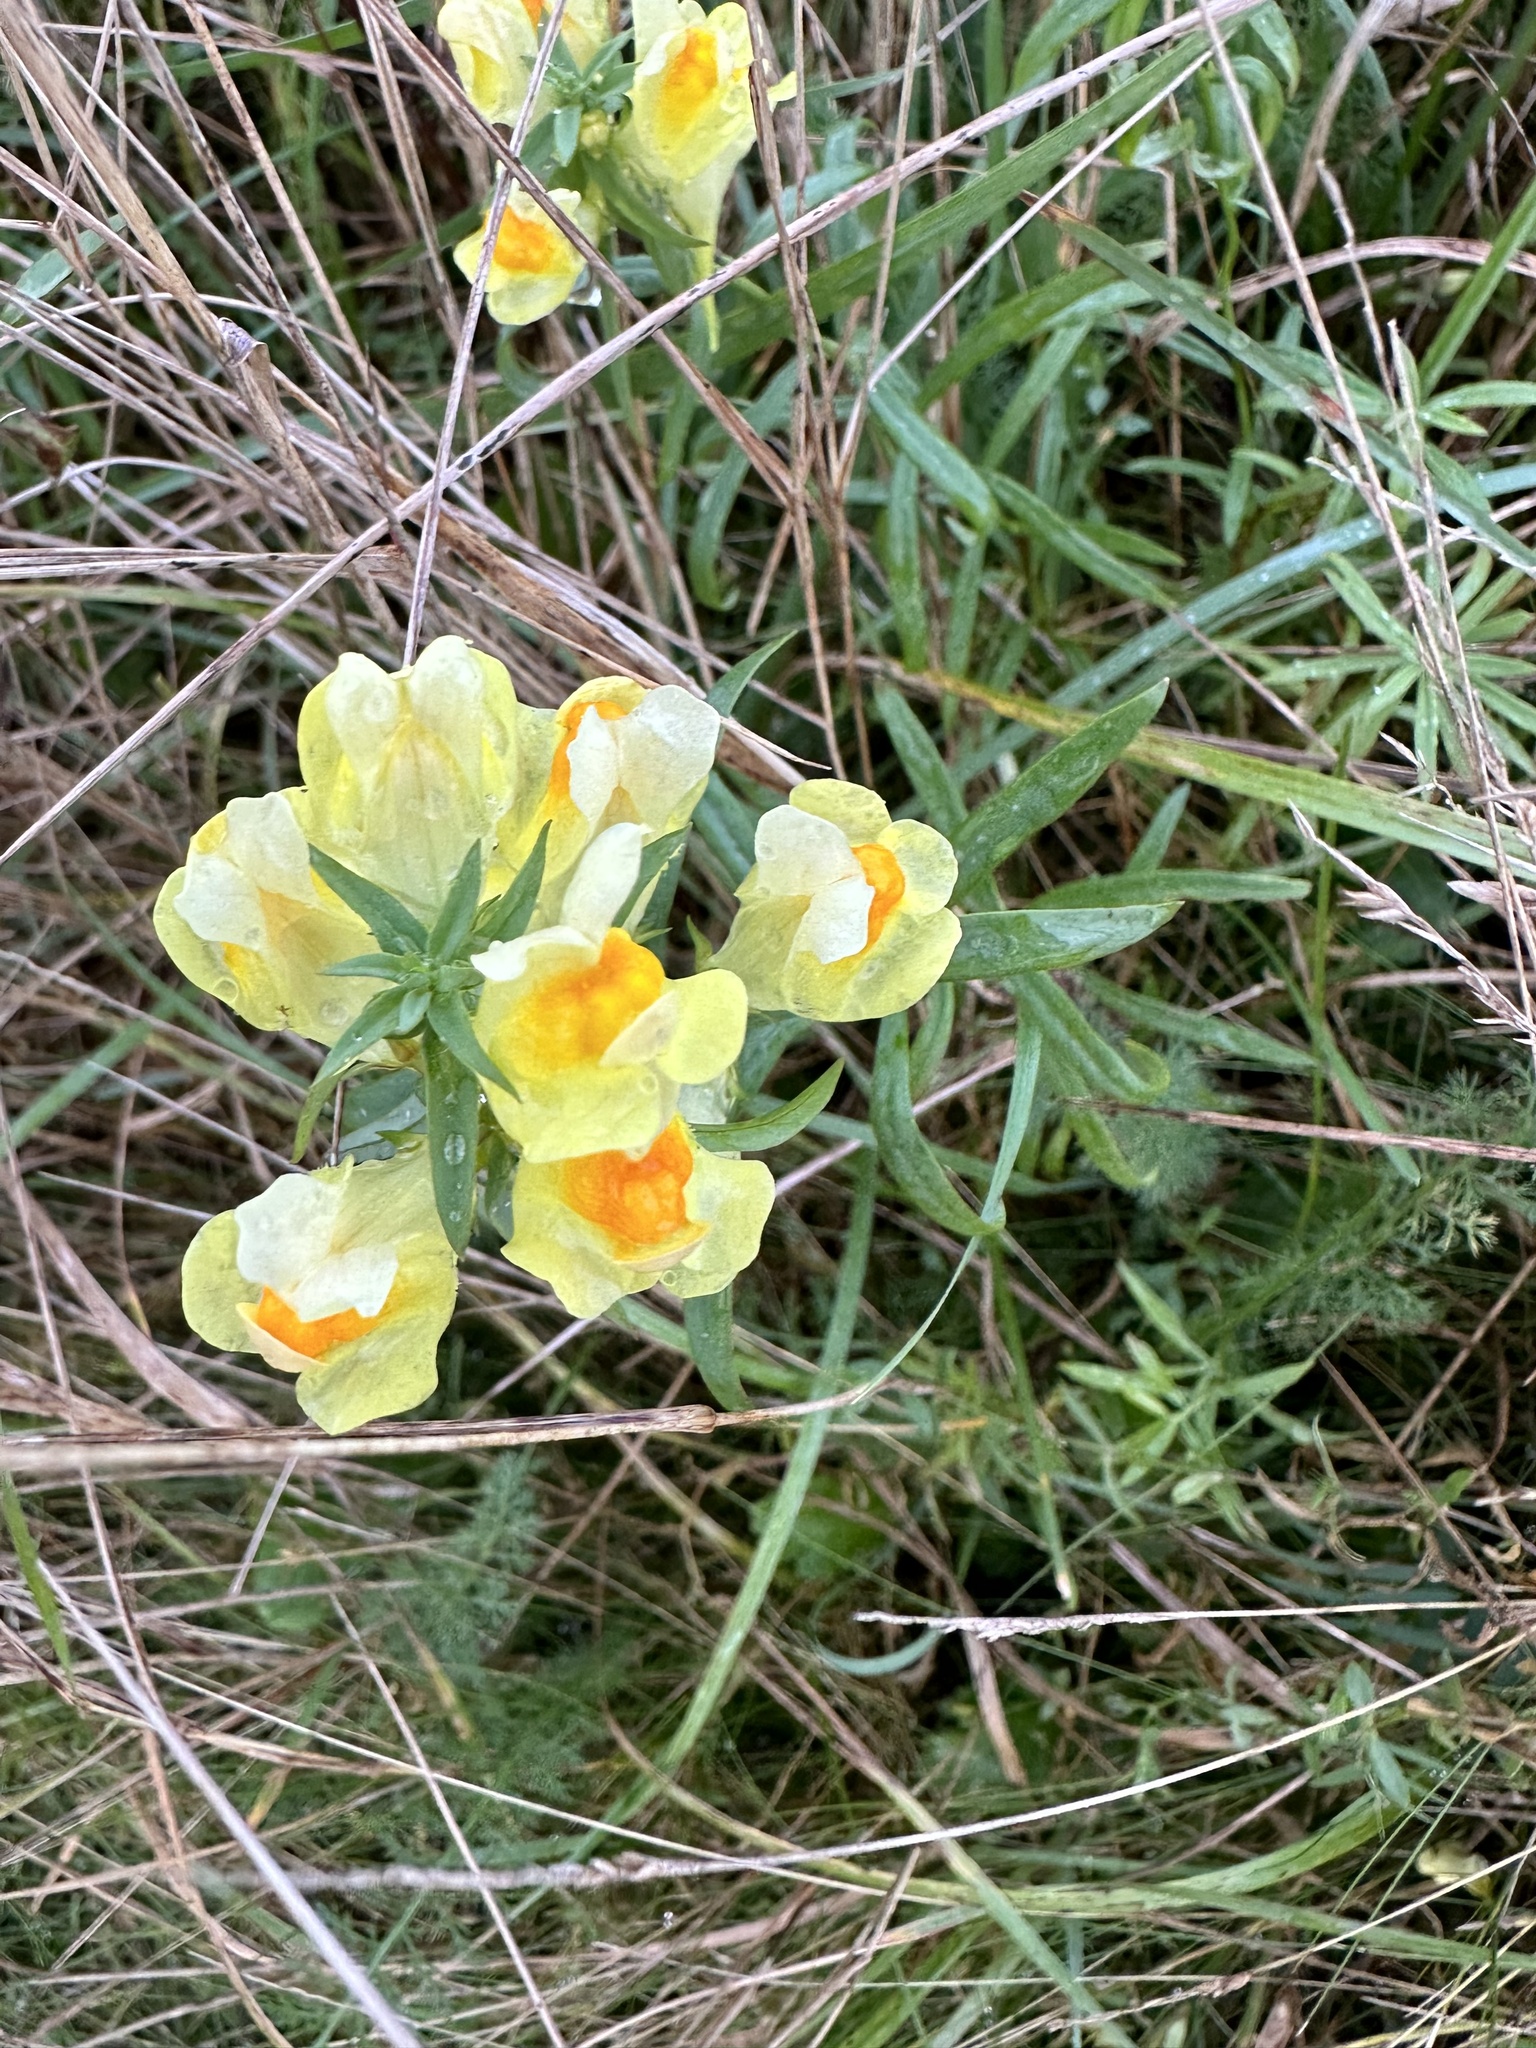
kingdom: Plantae
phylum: Tracheophyta
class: Magnoliopsida
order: Lamiales
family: Plantaginaceae
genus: Linaria
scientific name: Linaria vulgaris
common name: Butter and eggs
